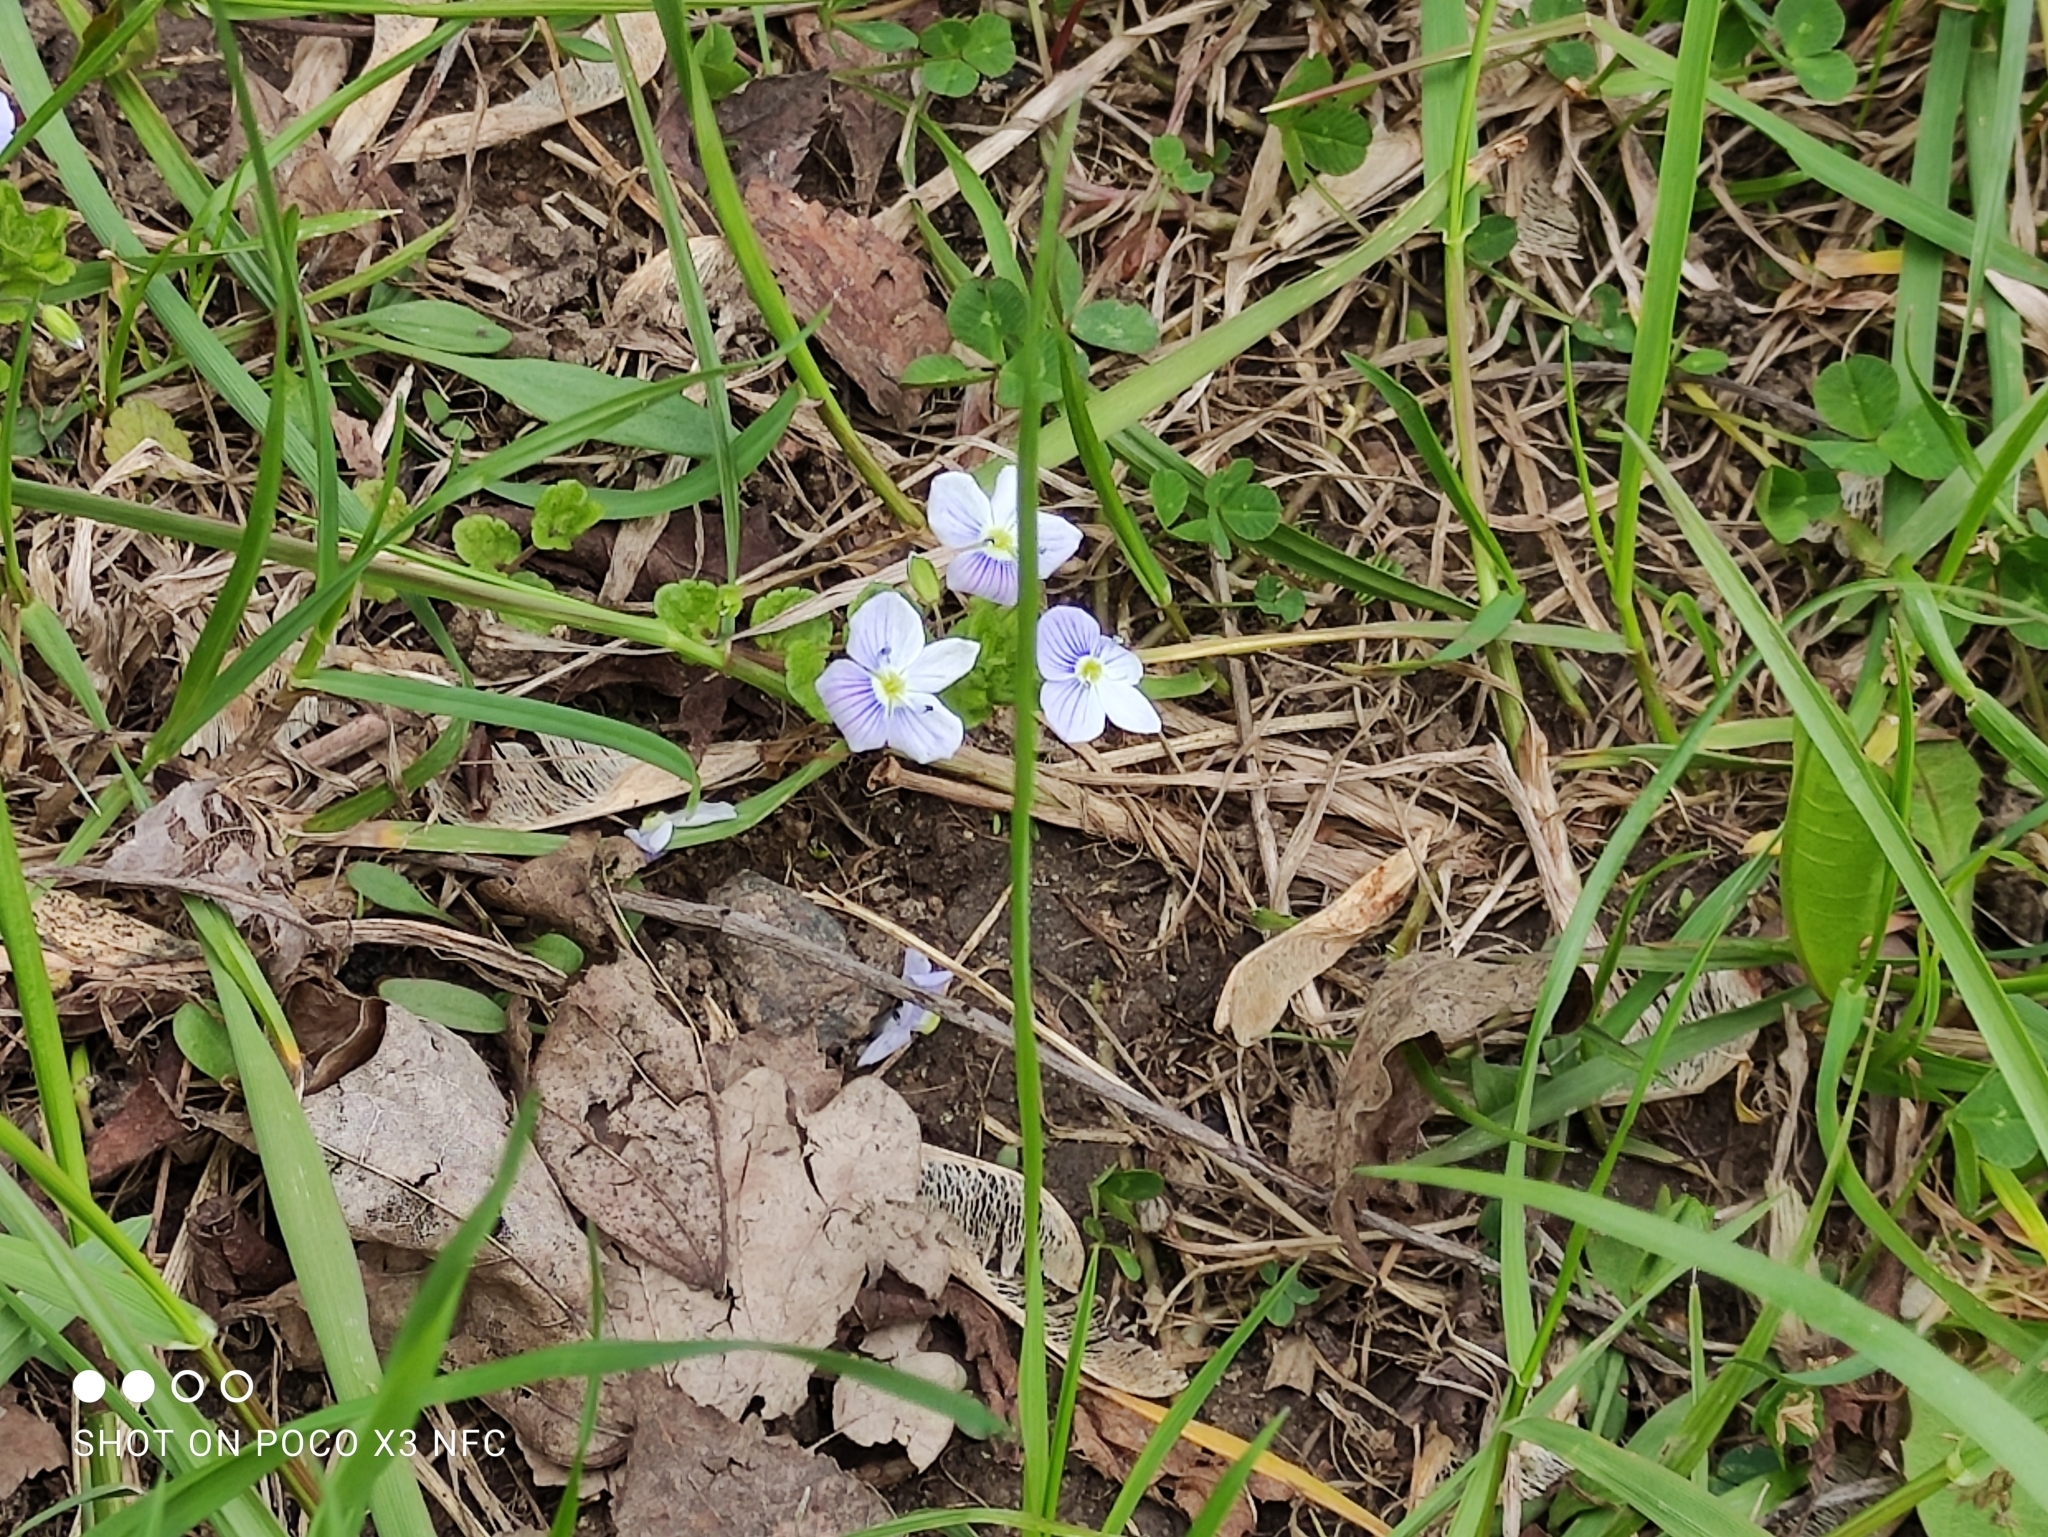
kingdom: Plantae
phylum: Tracheophyta
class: Magnoliopsida
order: Lamiales
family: Plantaginaceae
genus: Veronica
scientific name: Veronica filiformis
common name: Slender speedwell
